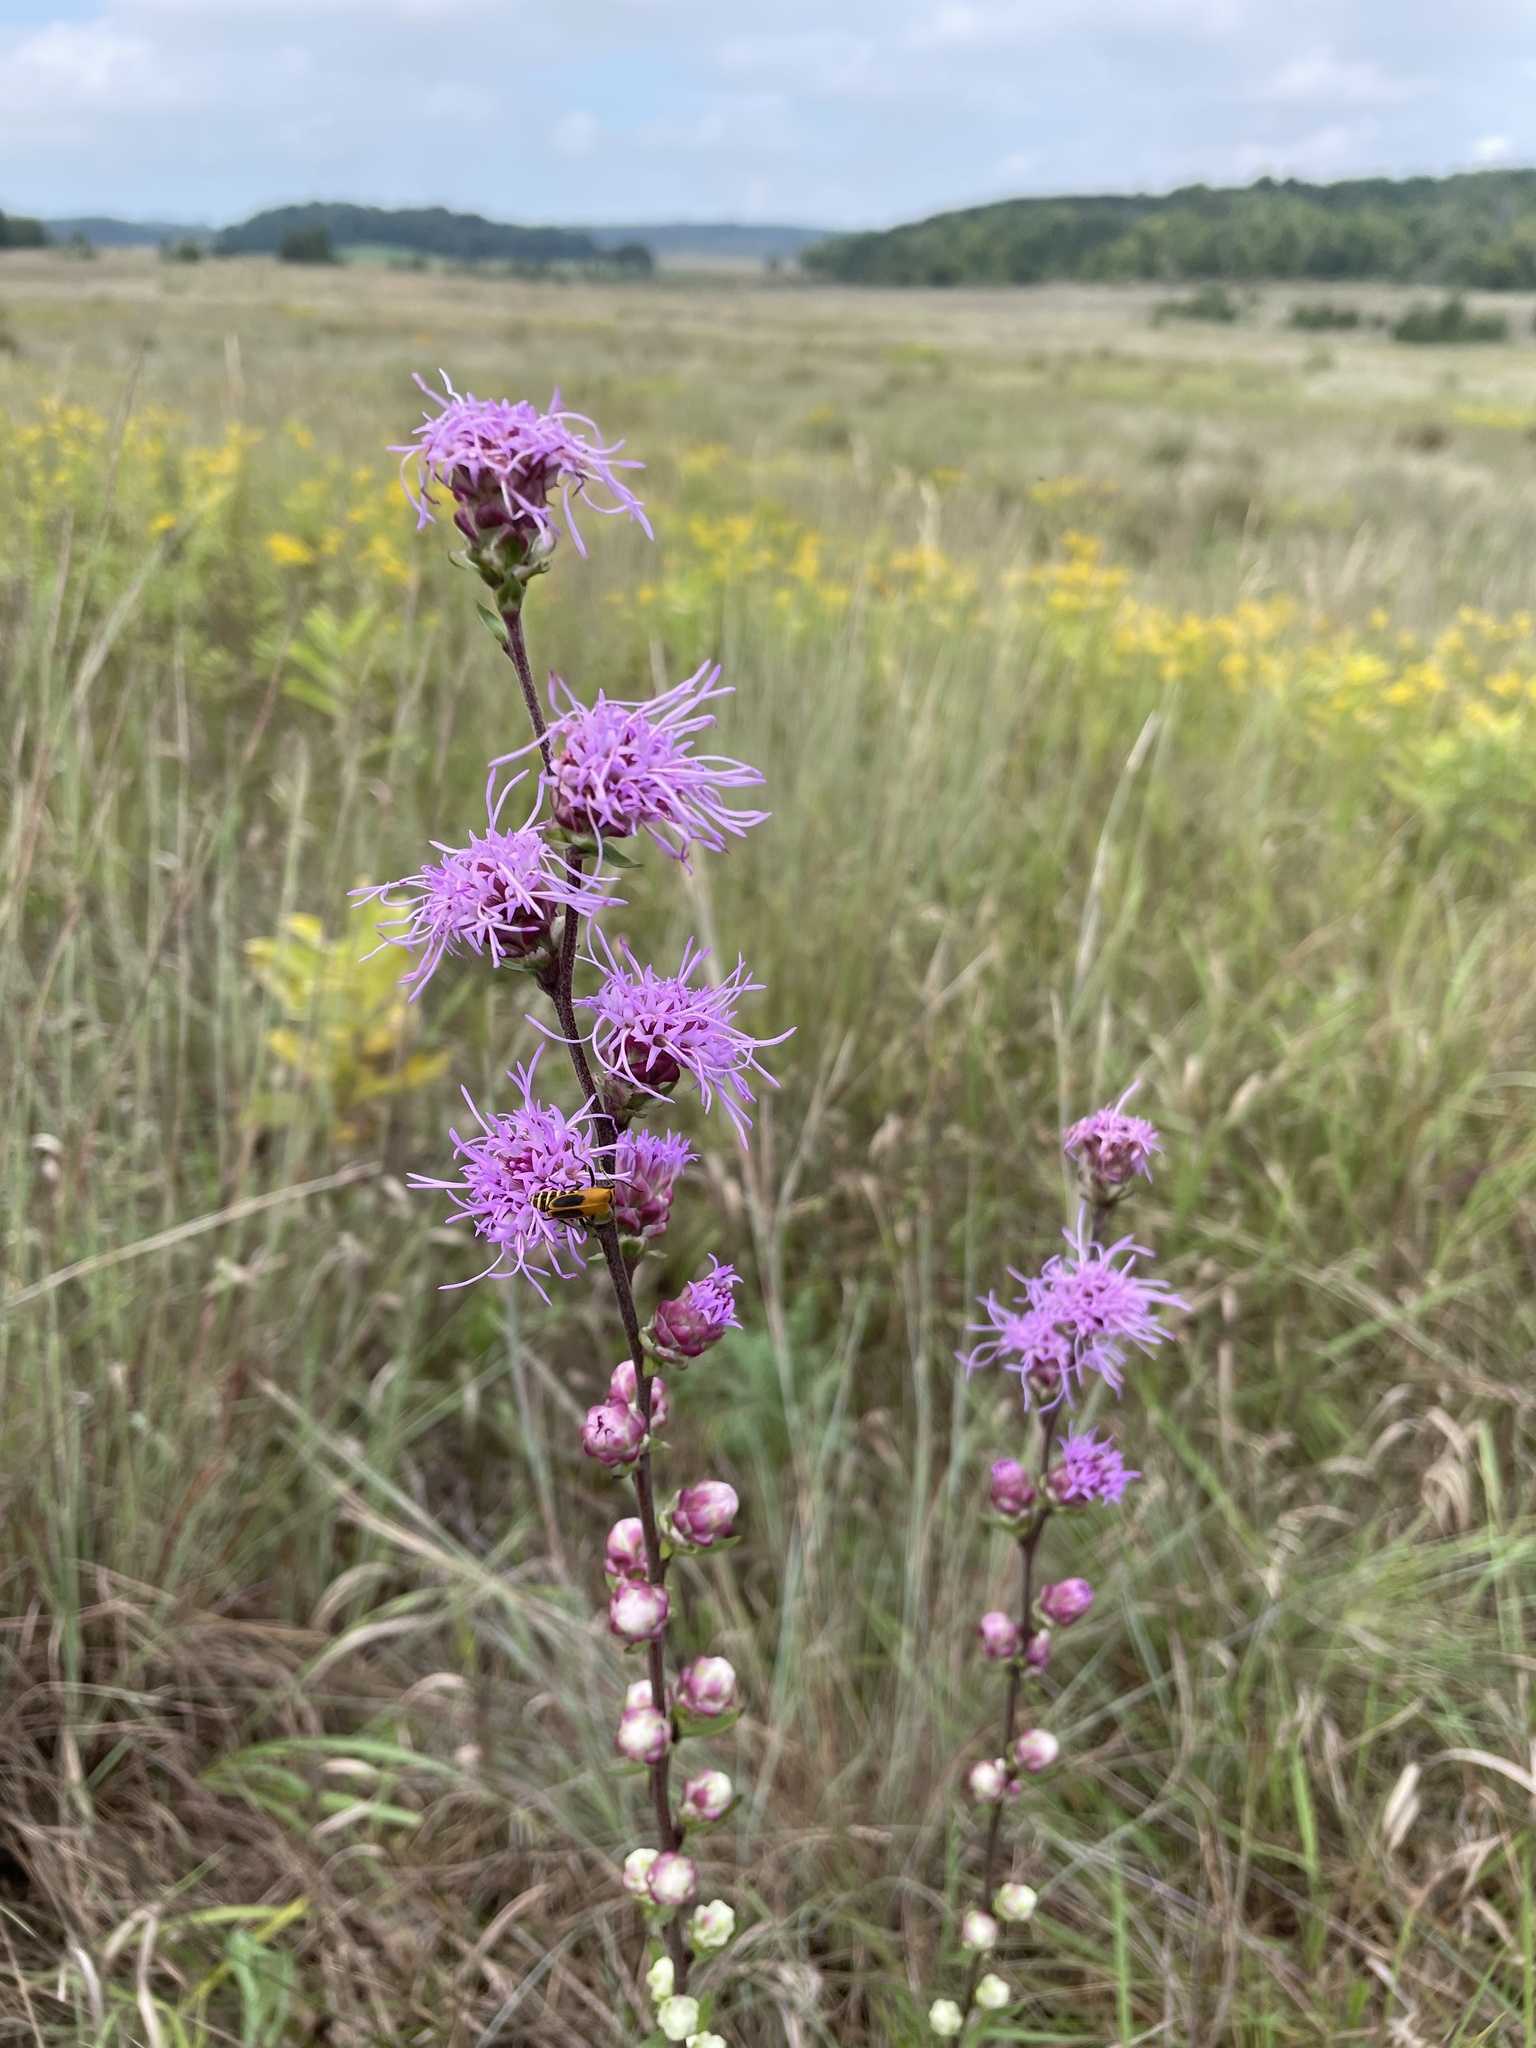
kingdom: Plantae
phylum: Tracheophyta
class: Magnoliopsida
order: Asterales
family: Asteraceae
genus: Liatris
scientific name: Liatris aspera
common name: Lacerate blazing-star
